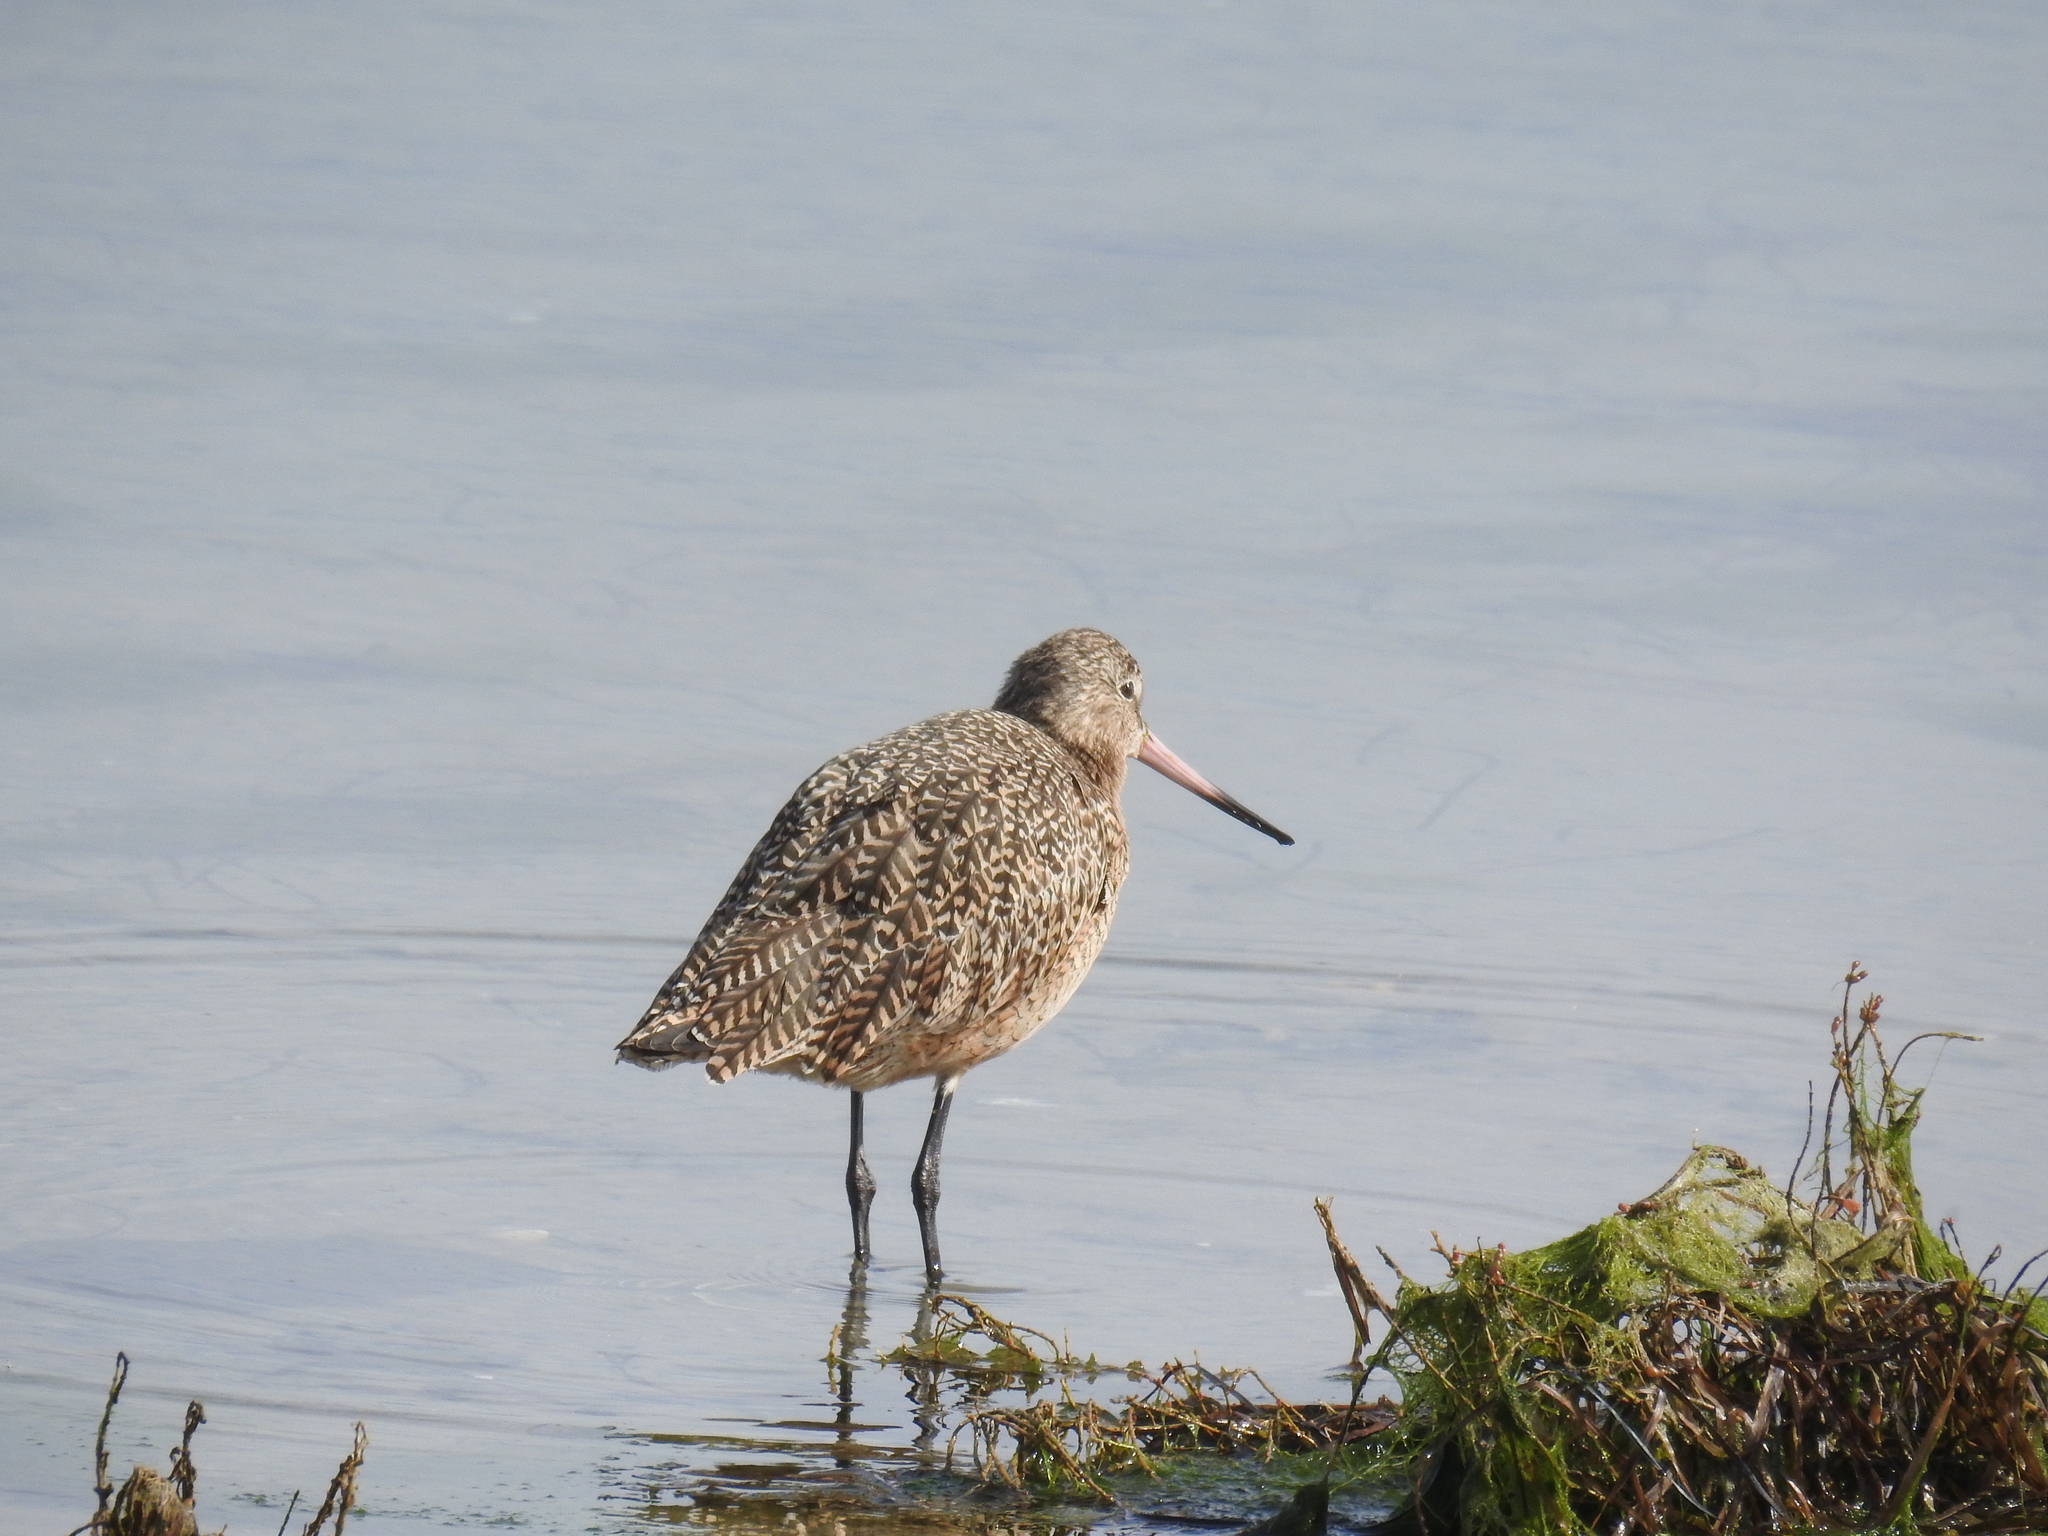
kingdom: Animalia
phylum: Chordata
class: Aves
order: Charadriiformes
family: Scolopacidae
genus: Limosa
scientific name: Limosa fedoa
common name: Marbled godwit
